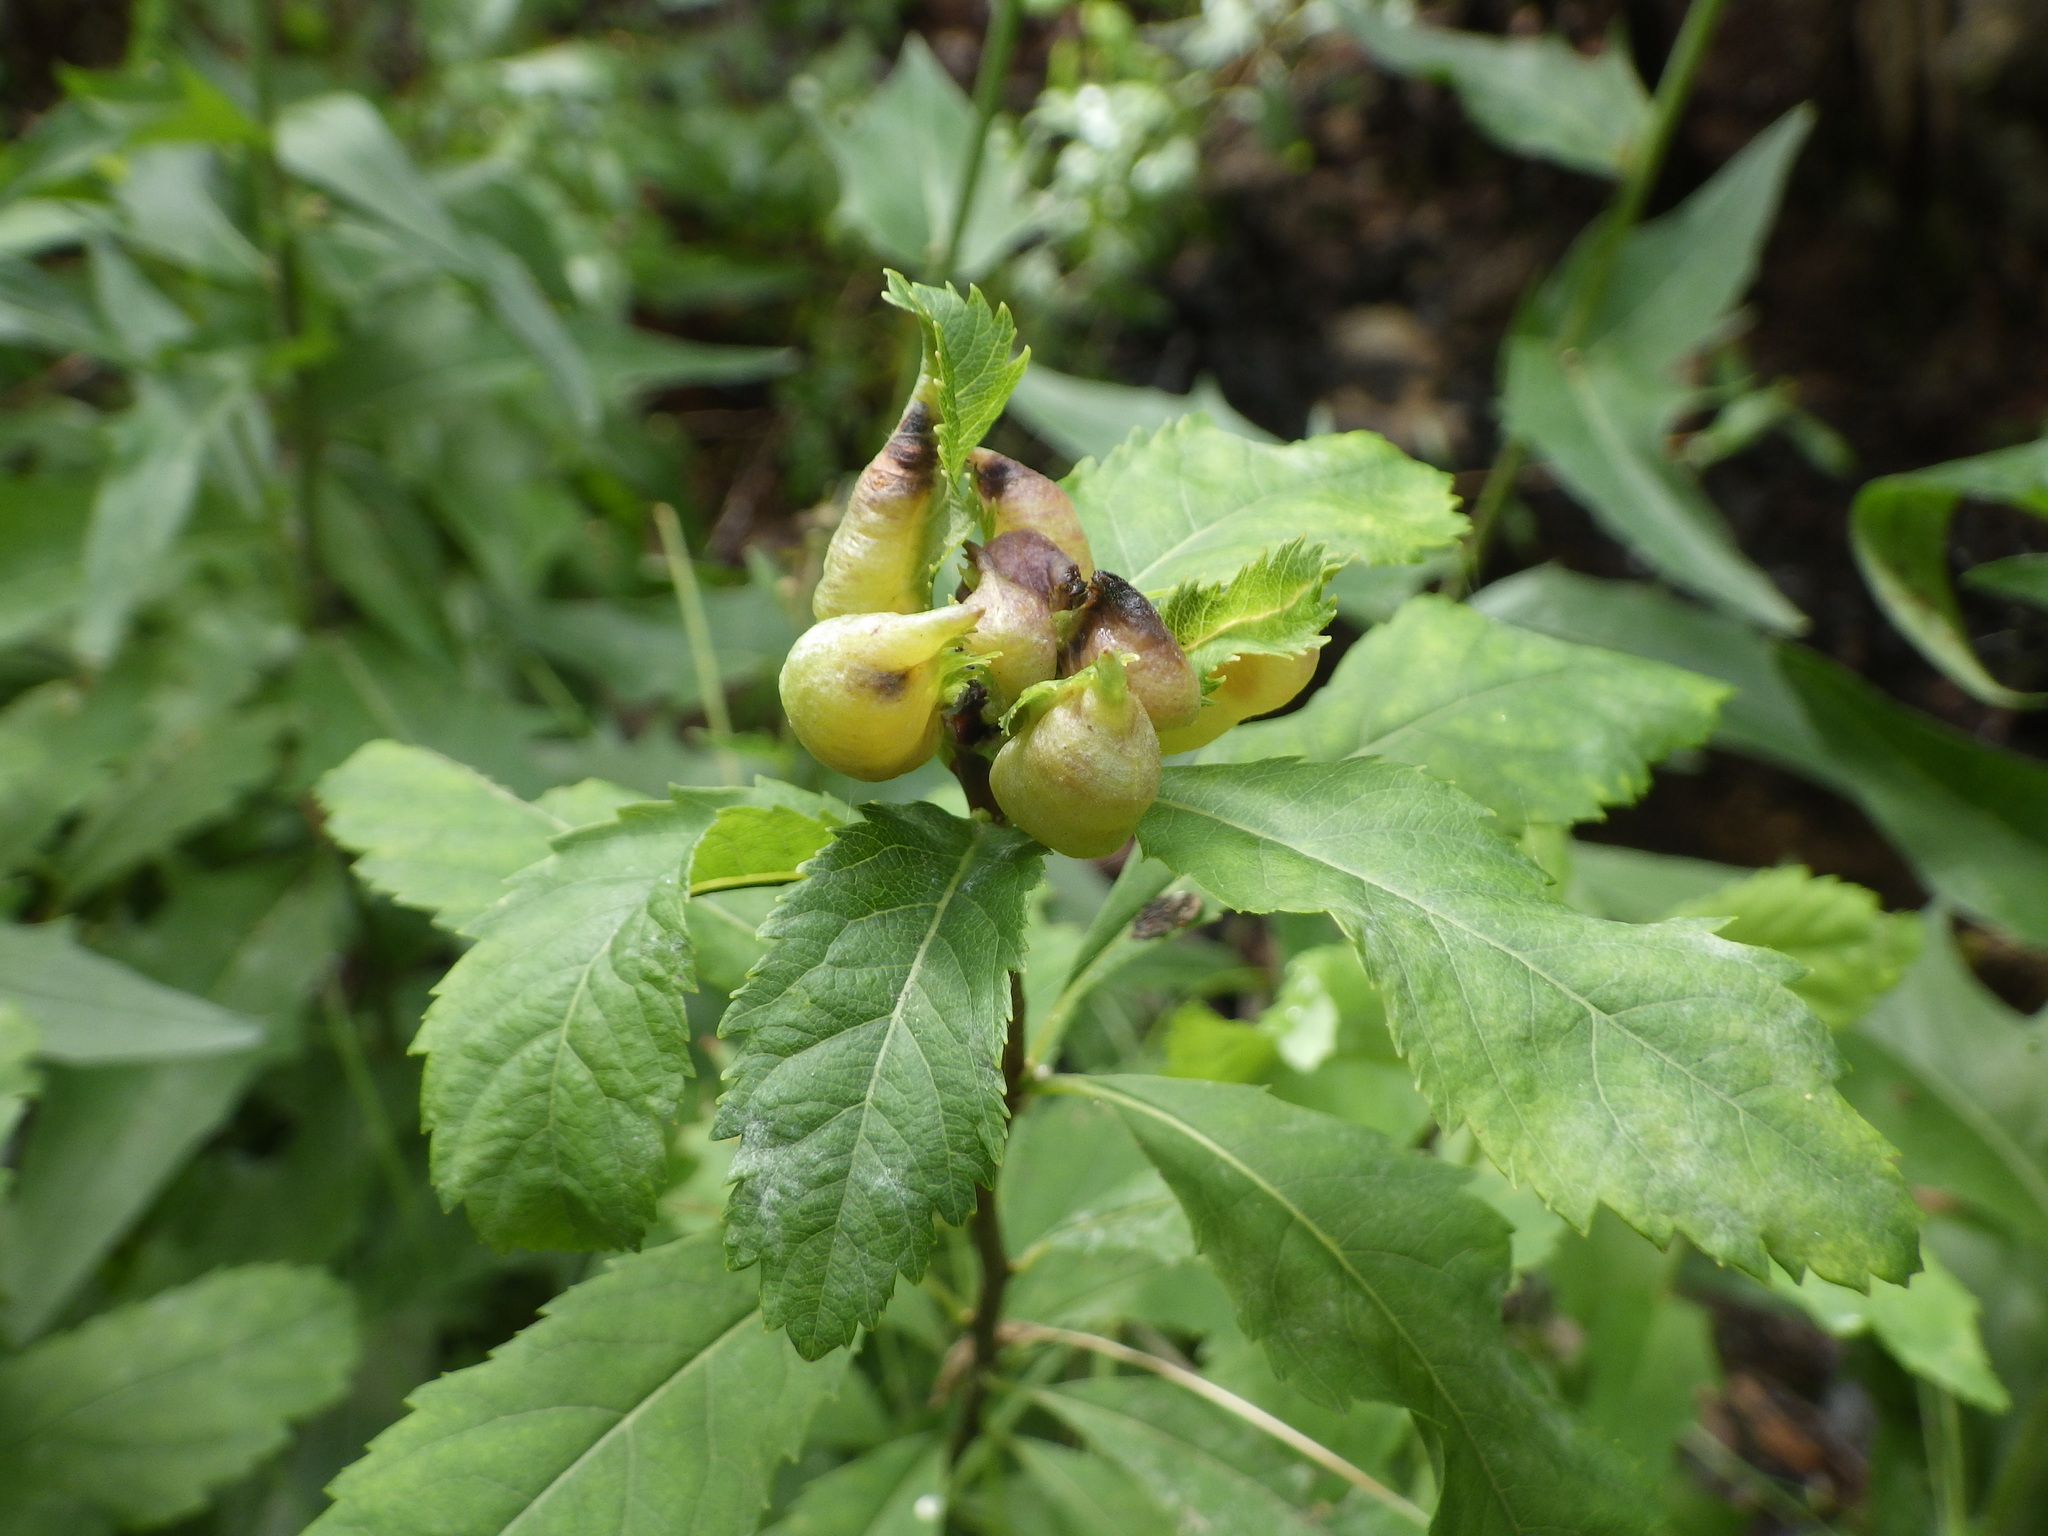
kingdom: Animalia
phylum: Arthropoda
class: Insecta
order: Diptera
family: Cecidomyiidae
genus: Dasineura
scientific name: Dasineura salicifoliae
